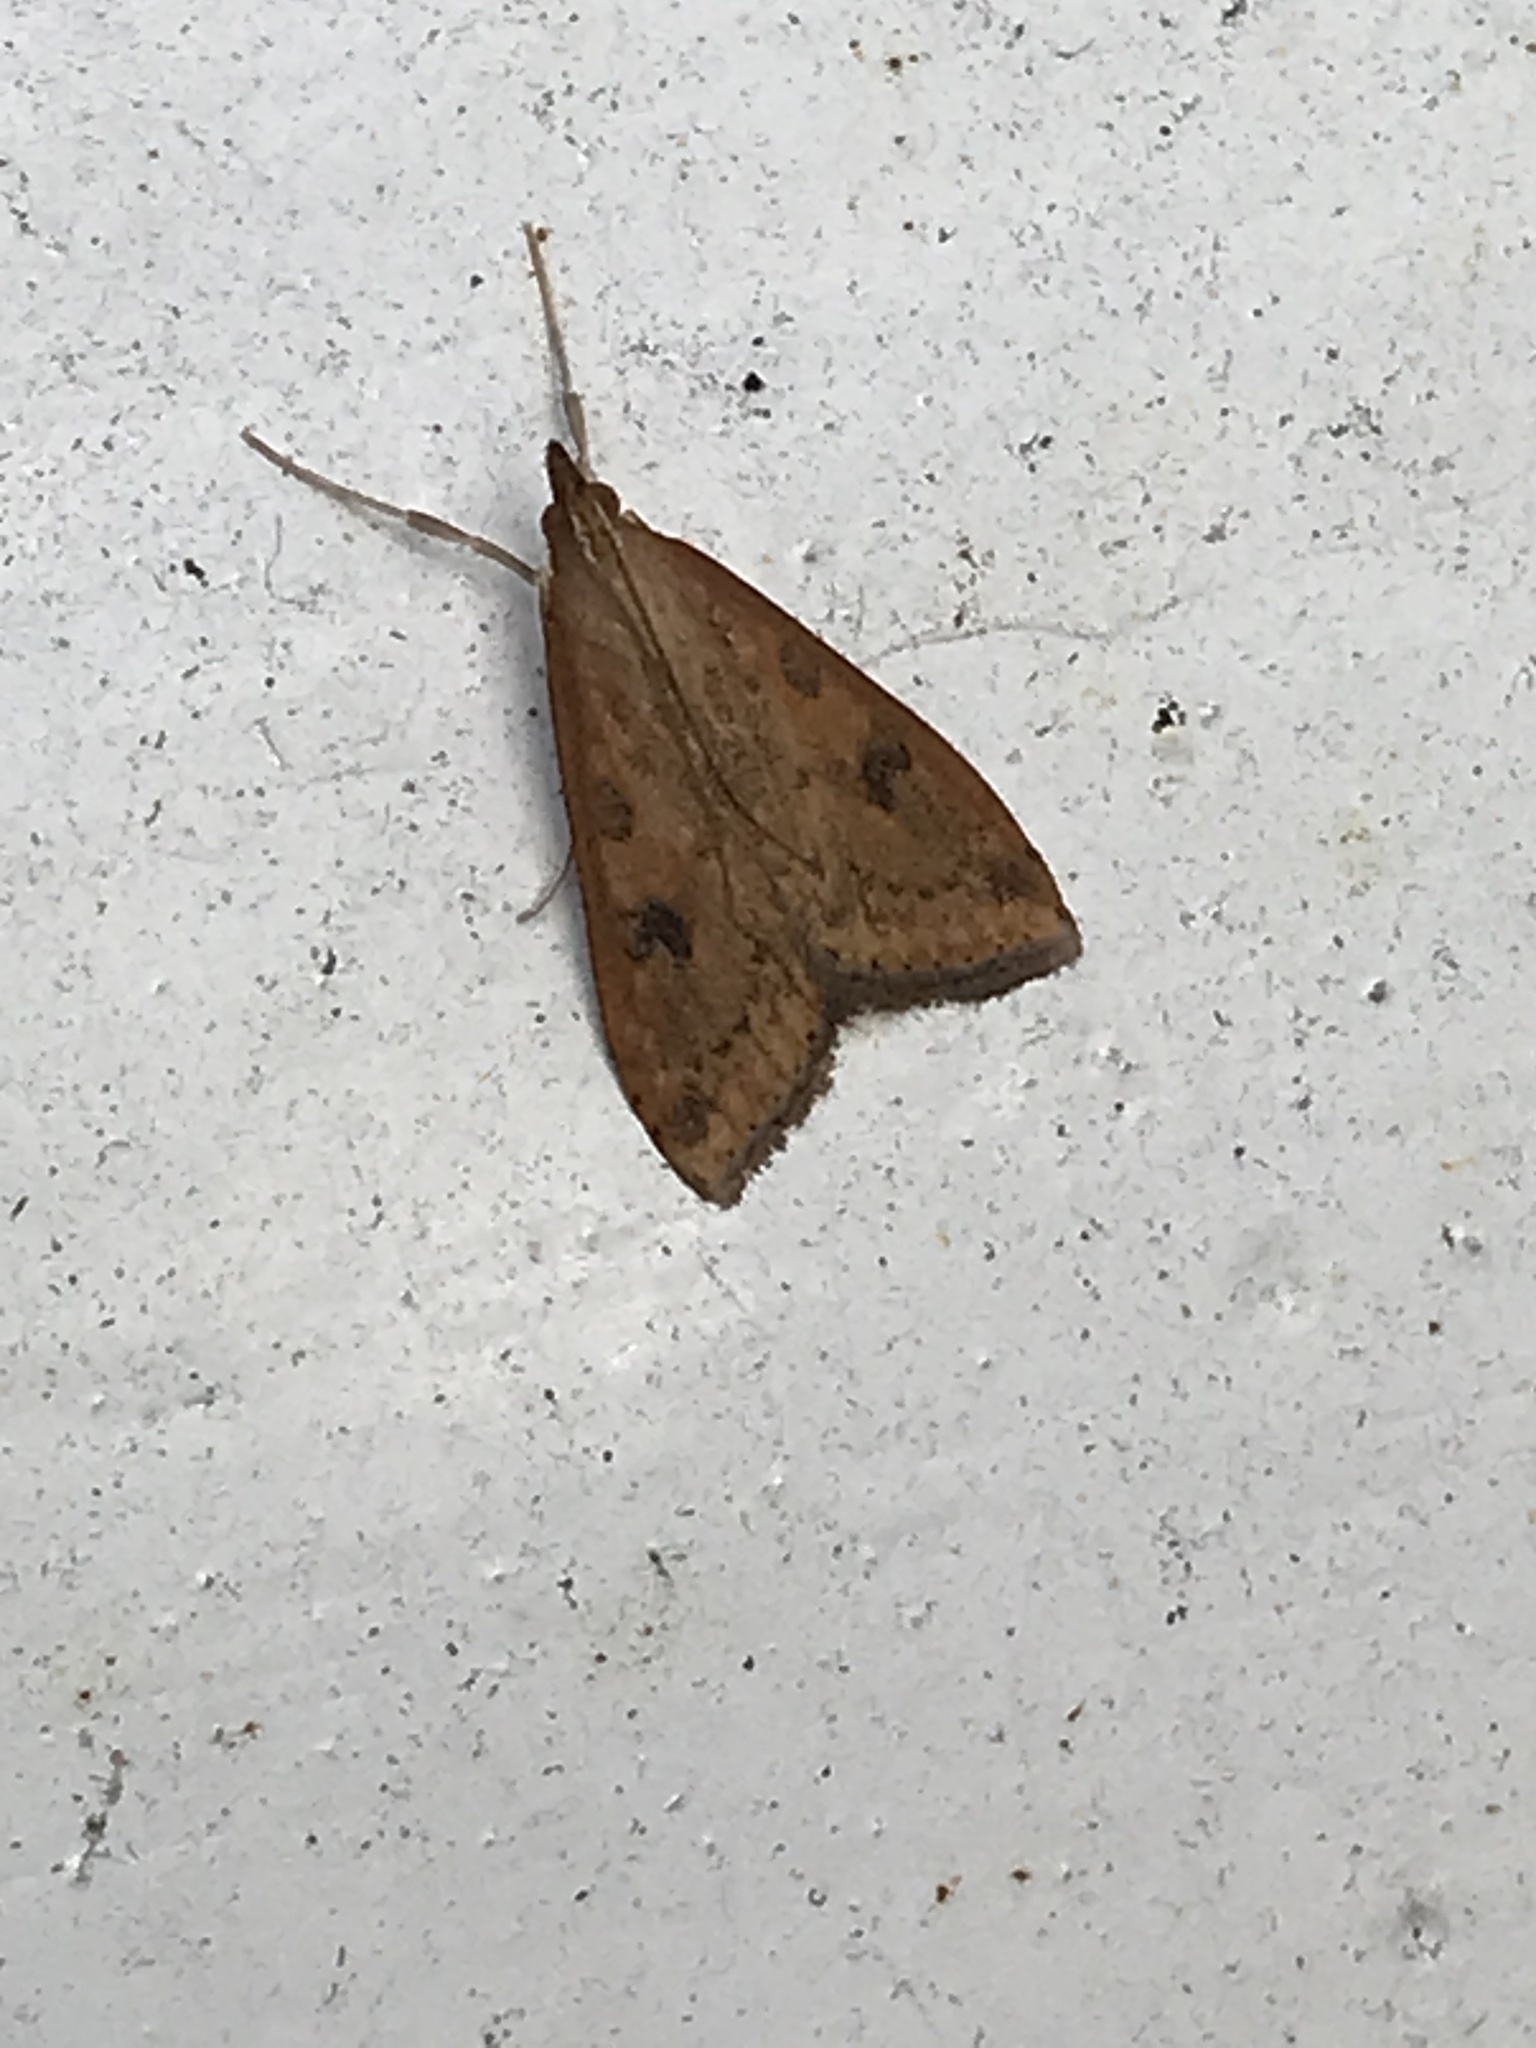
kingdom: Animalia
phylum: Arthropoda
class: Insecta
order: Lepidoptera
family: Crambidae
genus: Udea
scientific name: Udea ferrugalis
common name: Rusty dot
